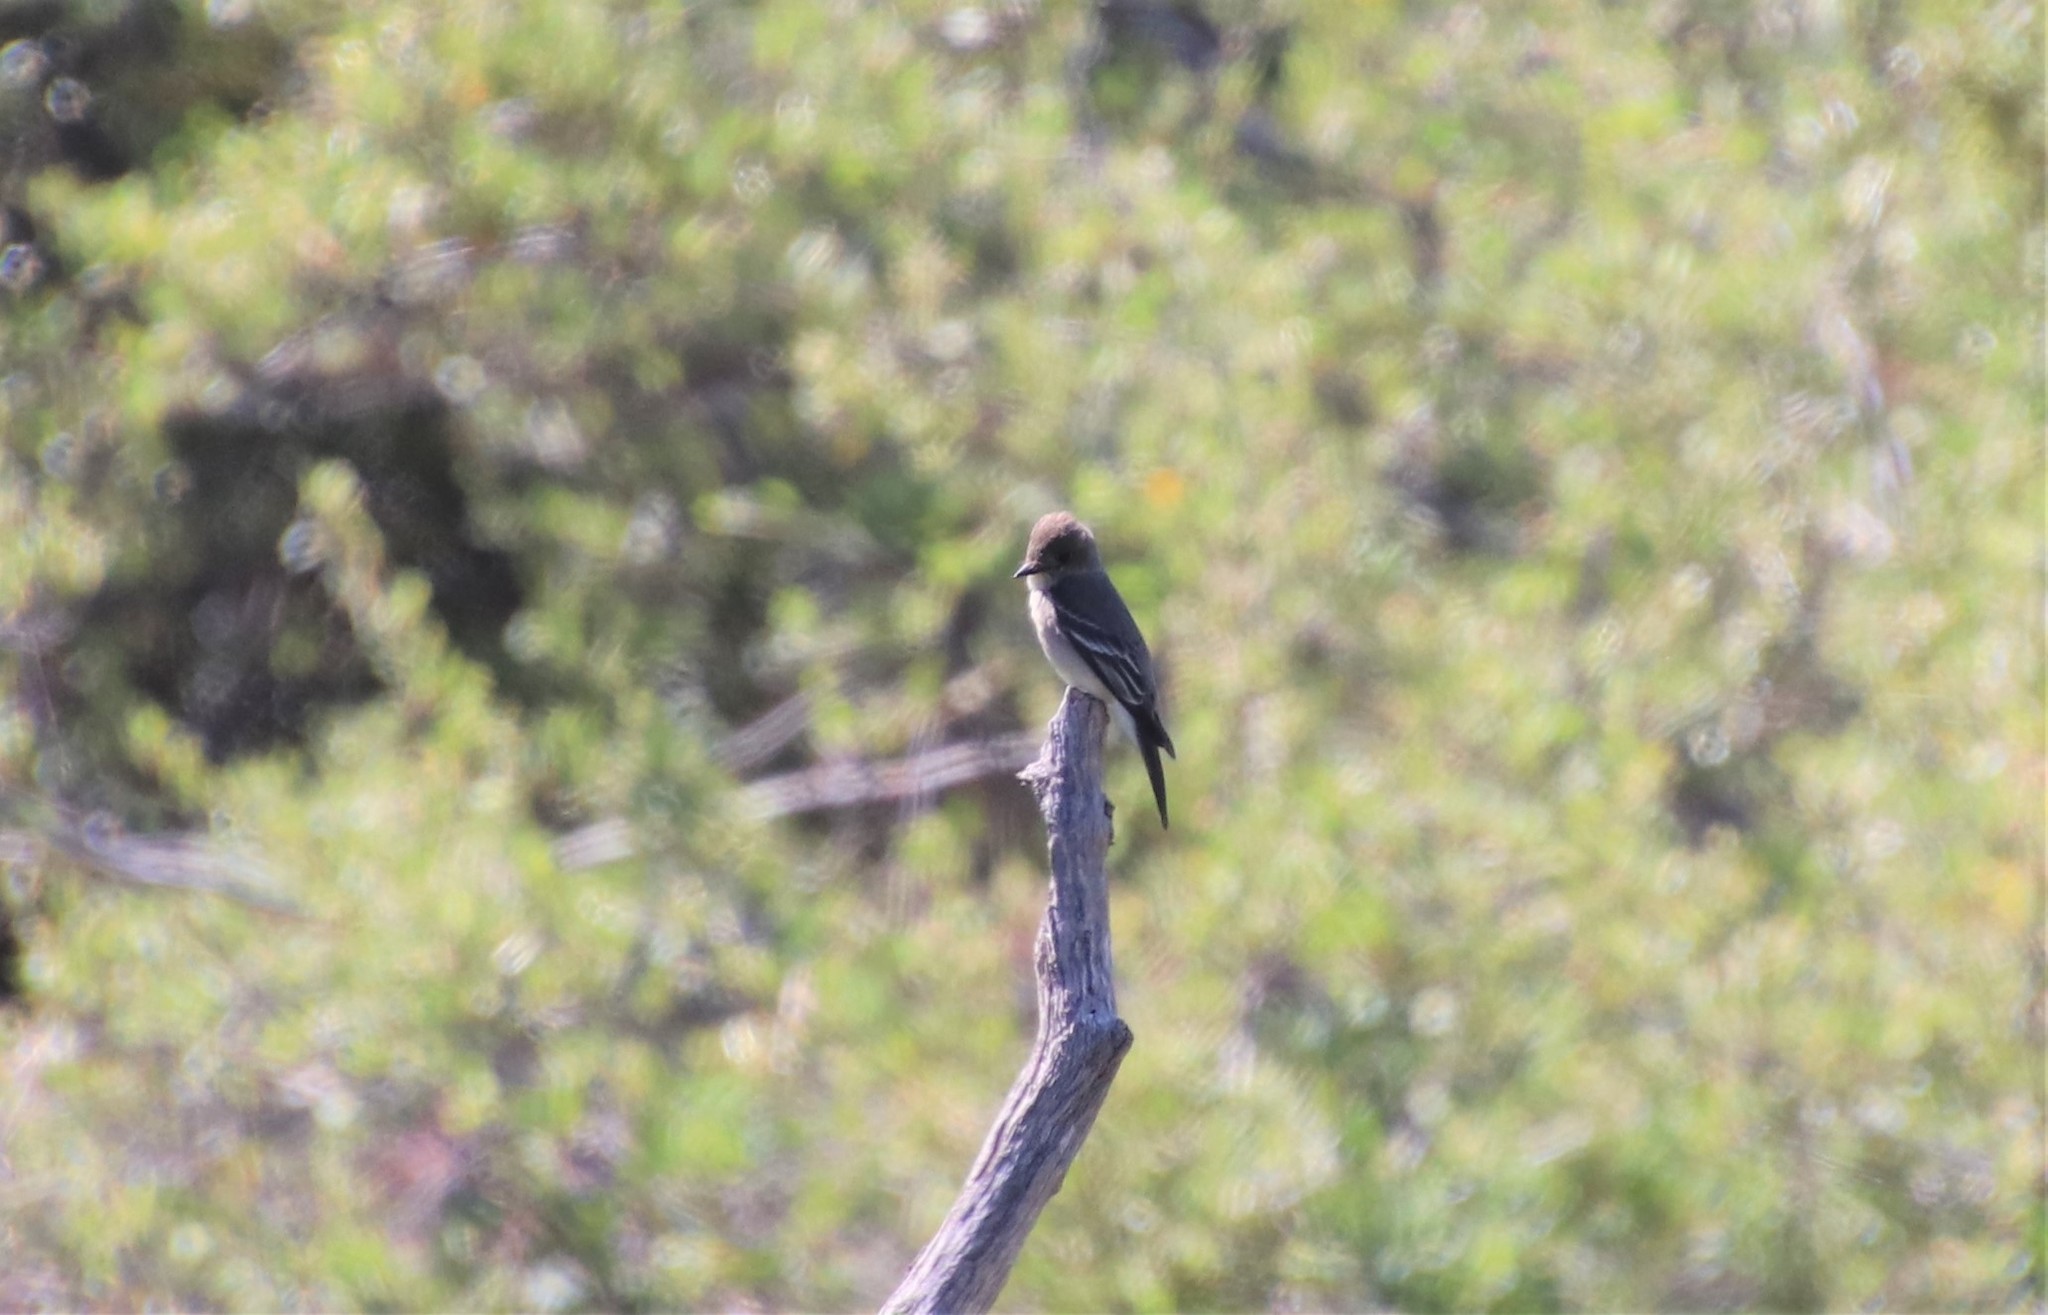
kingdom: Animalia
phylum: Chordata
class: Aves
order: Passeriformes
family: Tyrannidae
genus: Contopus
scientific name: Contopus sordidulus
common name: Western wood-pewee
